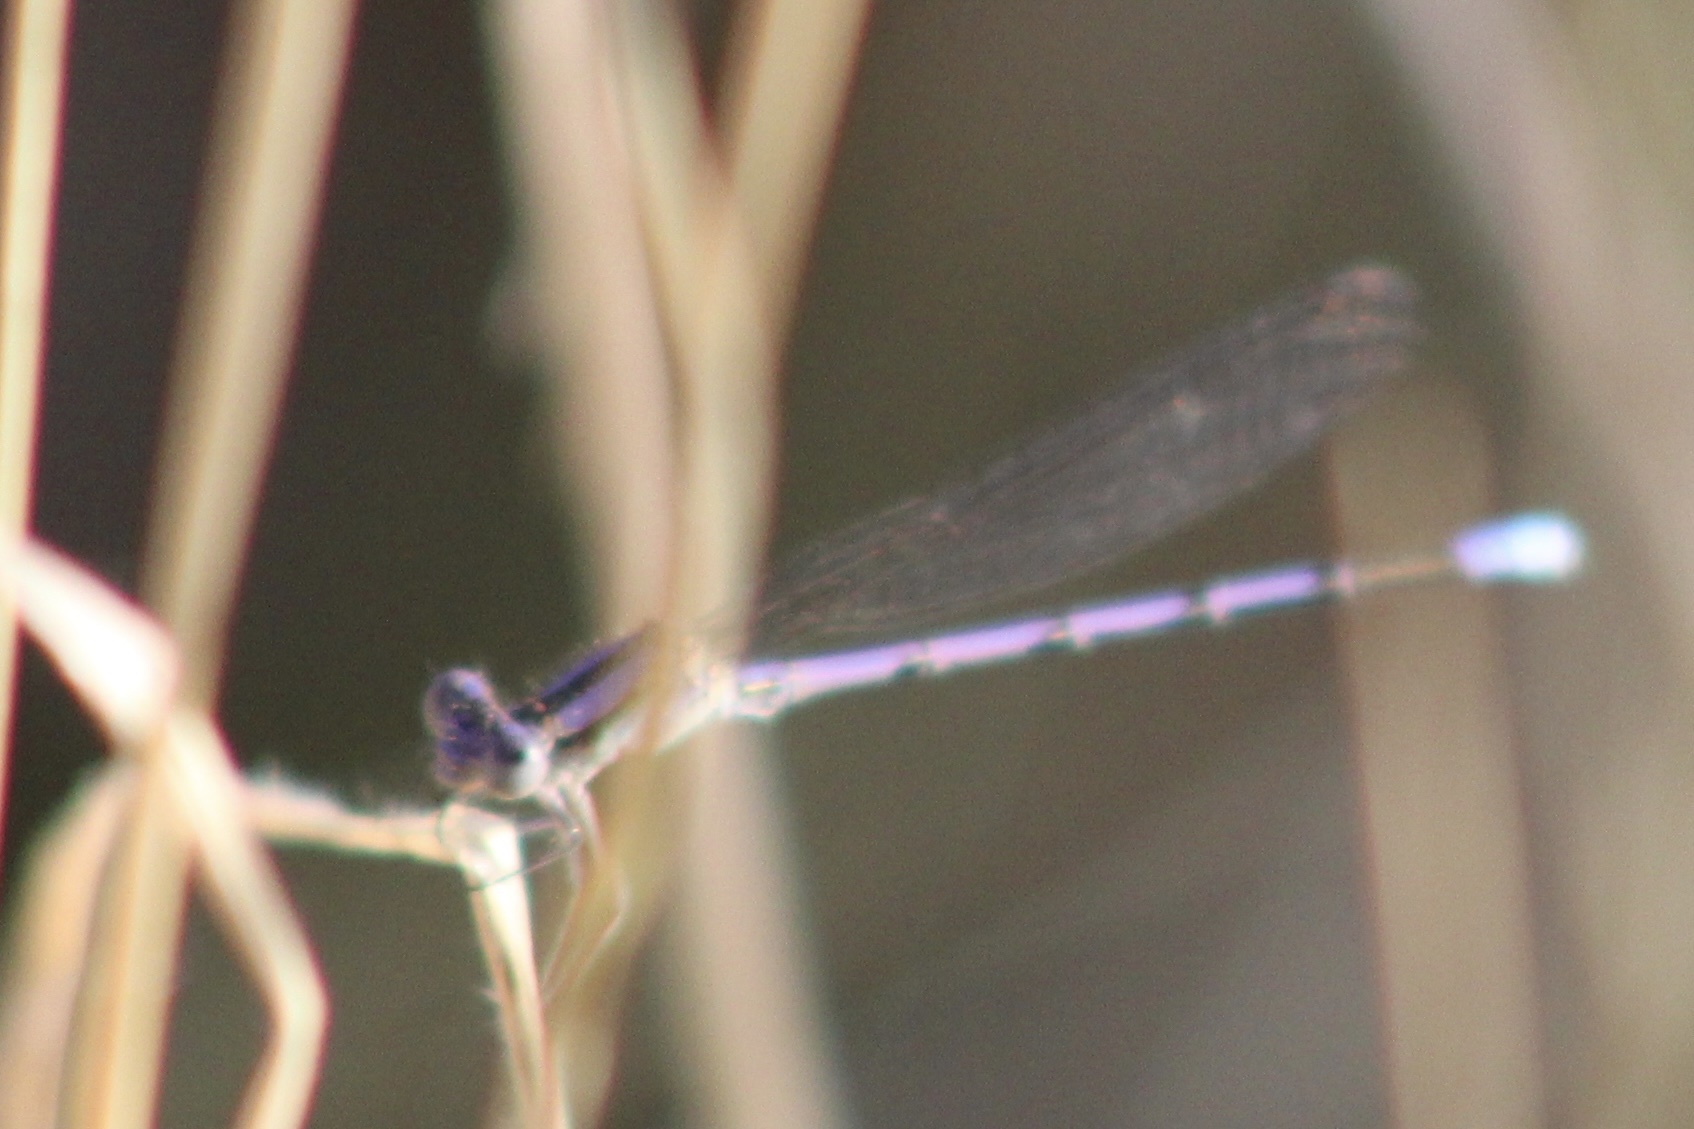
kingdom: Animalia
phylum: Arthropoda
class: Insecta
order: Odonata
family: Coenagrionidae
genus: Argia
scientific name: Argia fumipennis
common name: Variable dancer
